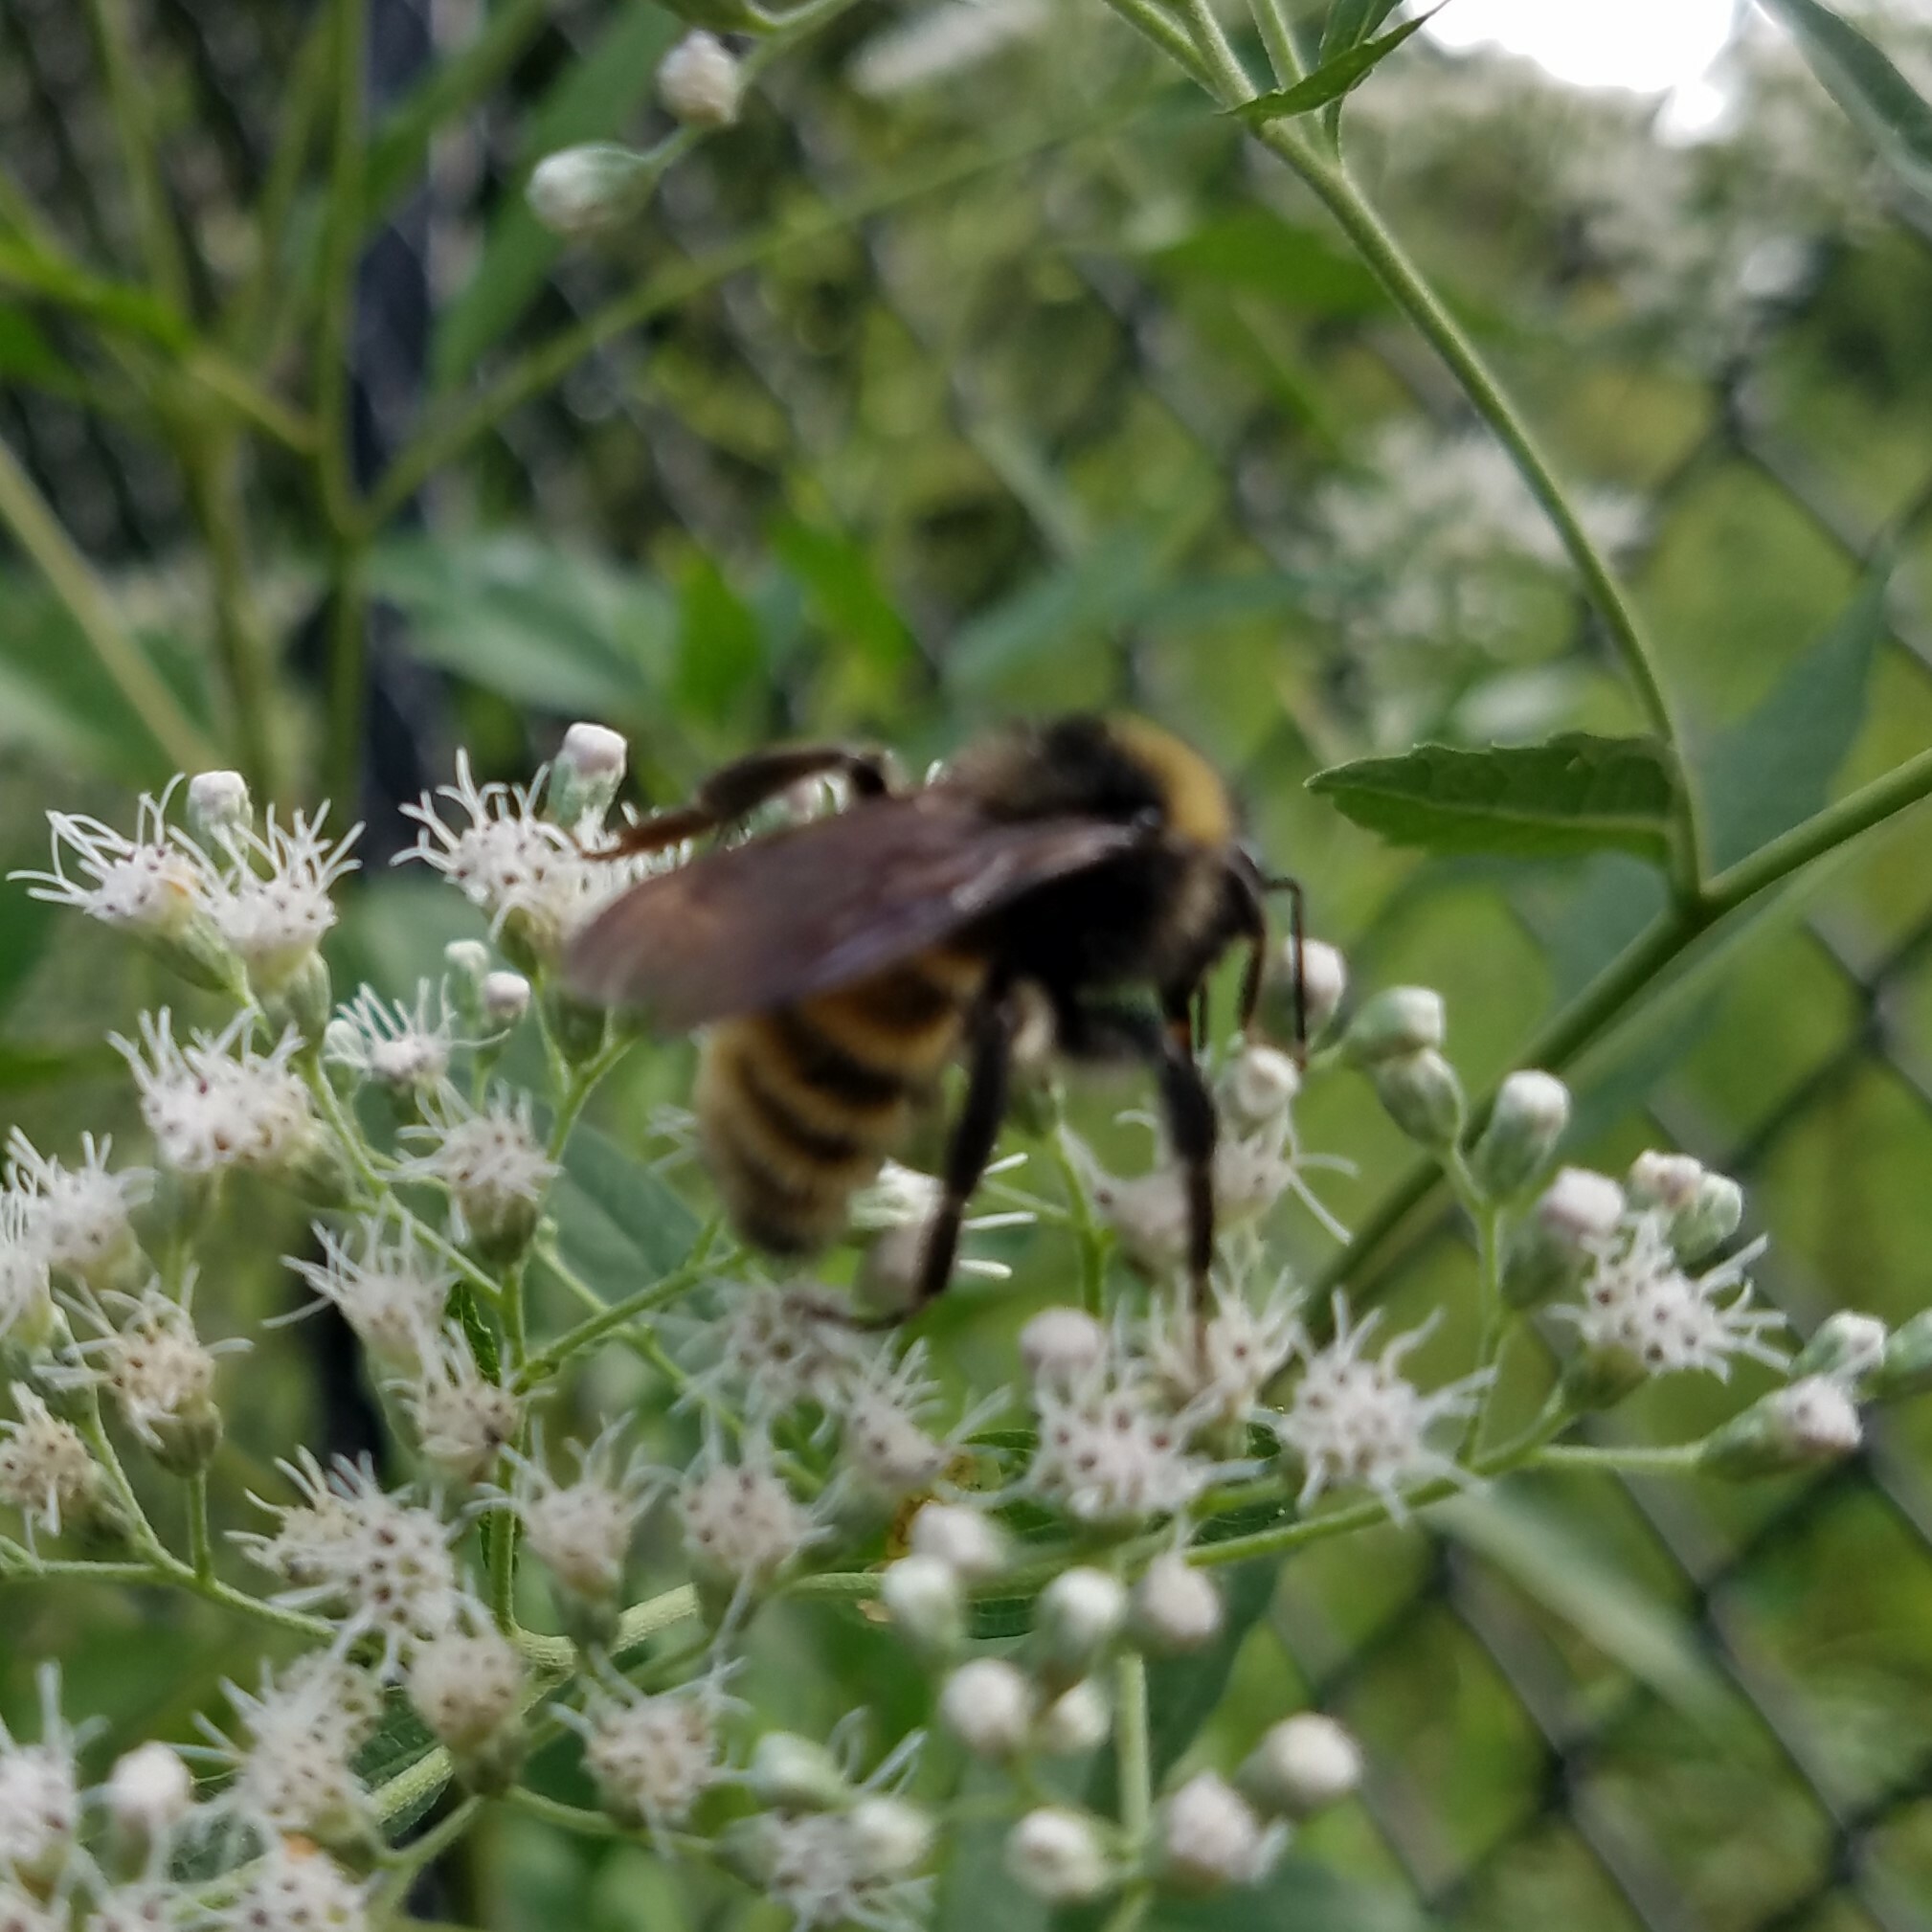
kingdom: Animalia
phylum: Arthropoda
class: Insecta
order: Hymenoptera
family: Apidae
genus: Bombus
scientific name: Bombus pensylvanicus
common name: Bumble bee
